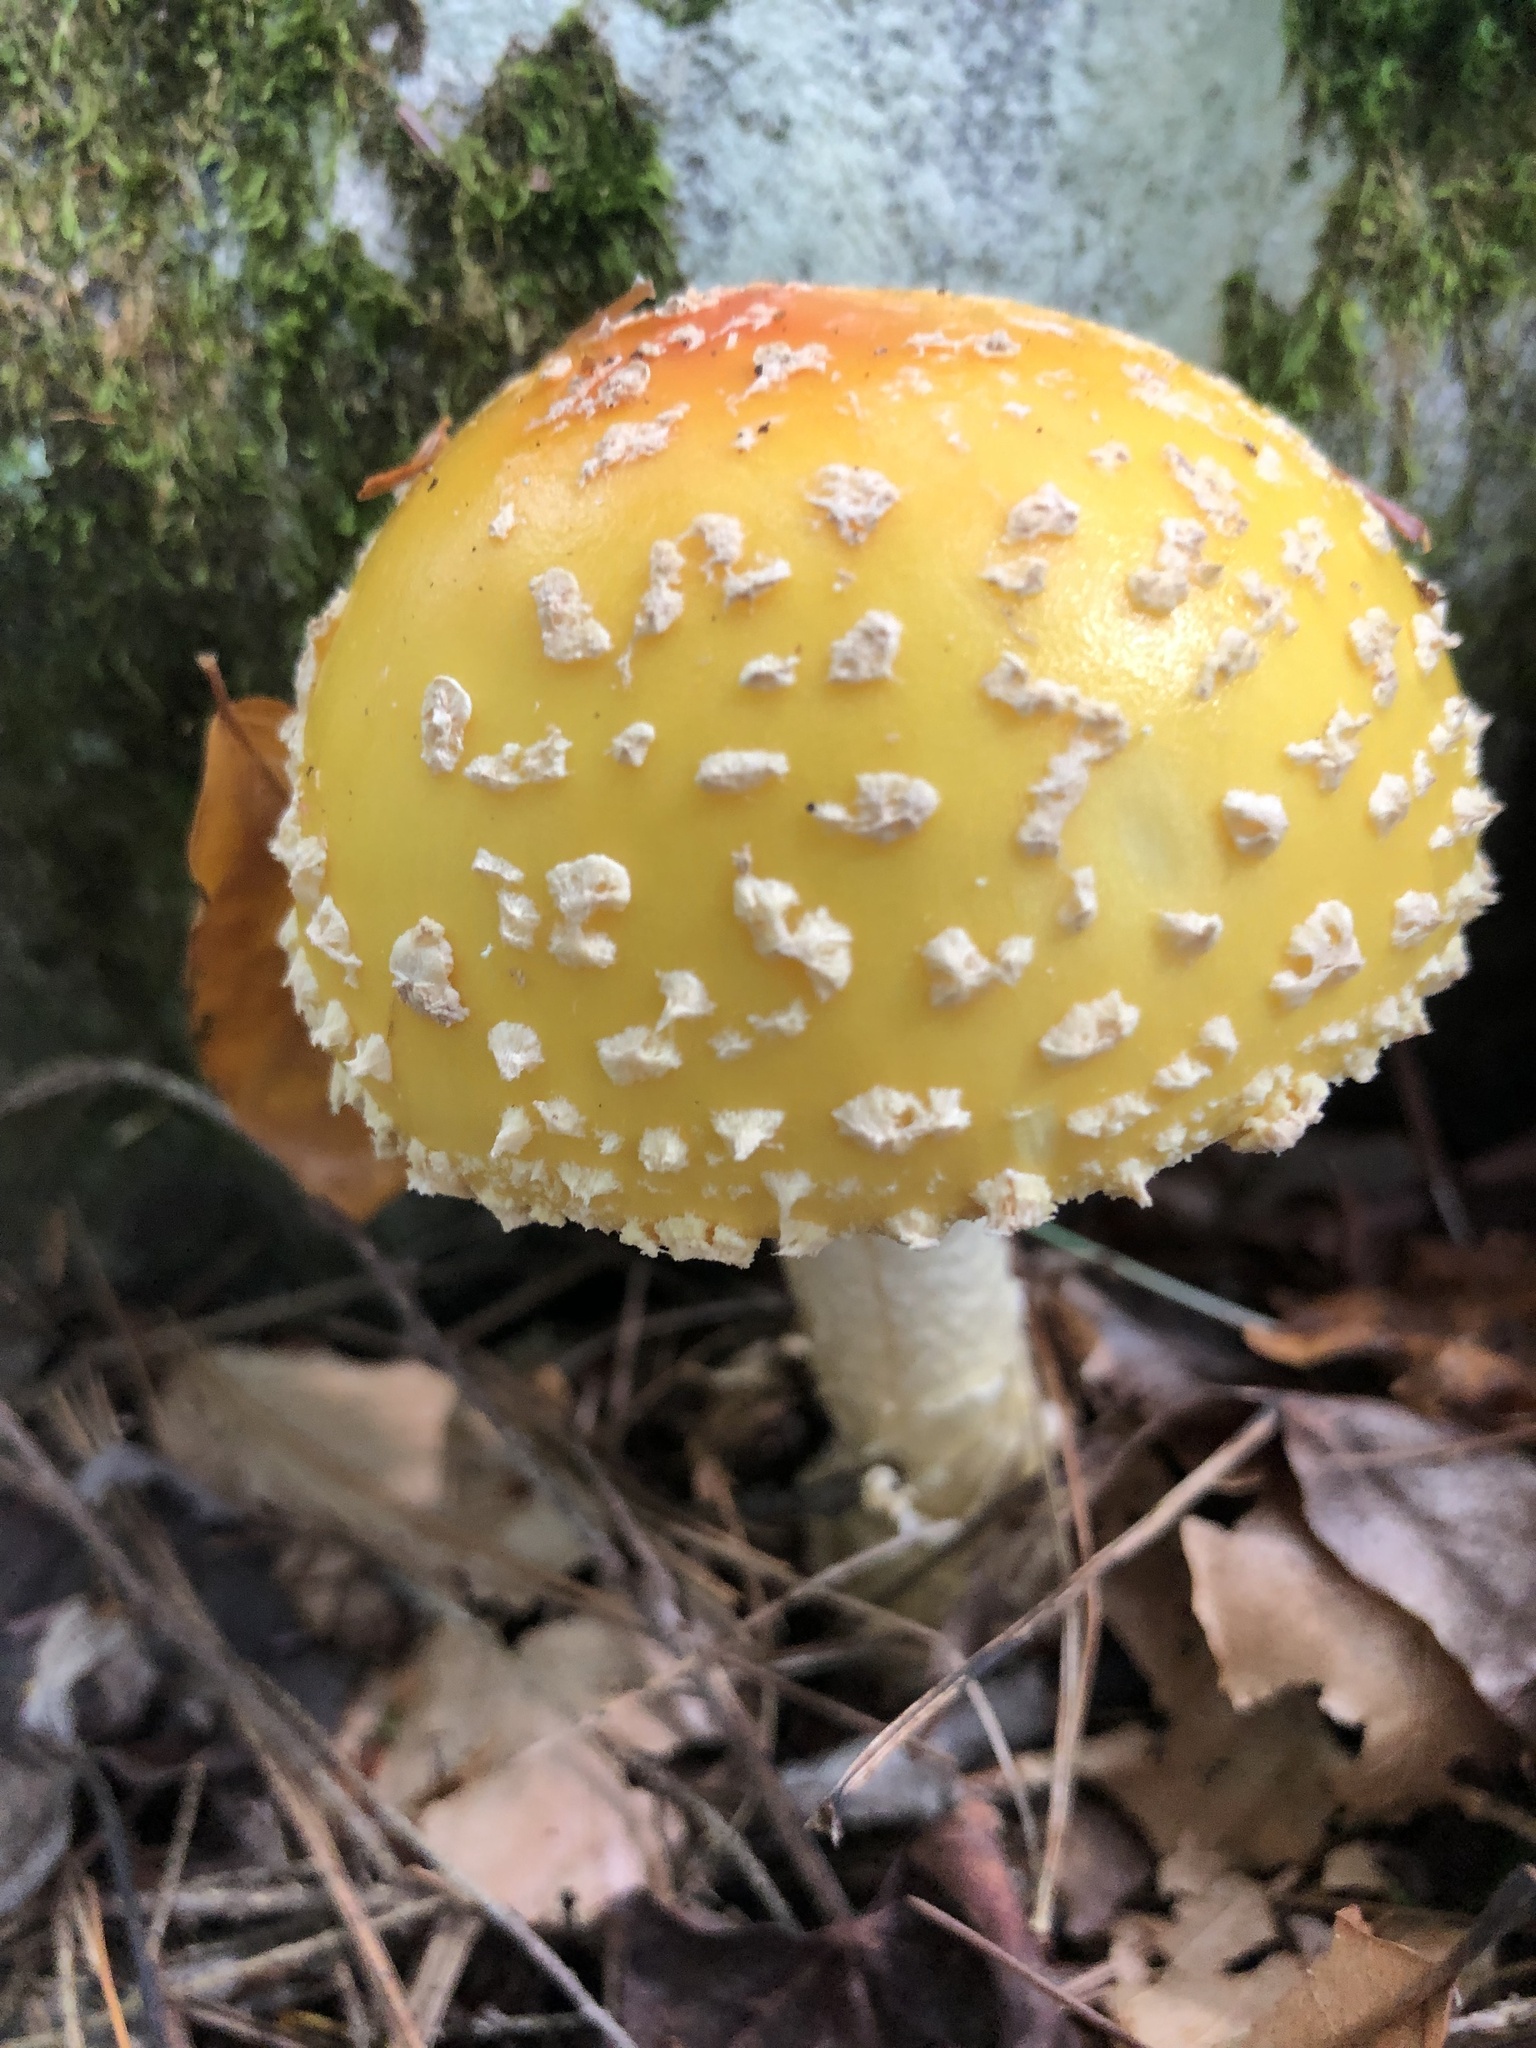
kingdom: Fungi
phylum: Basidiomycota
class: Agaricomycetes
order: Agaricales
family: Amanitaceae
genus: Amanita
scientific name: Amanita muscaria
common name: Fly agaric
